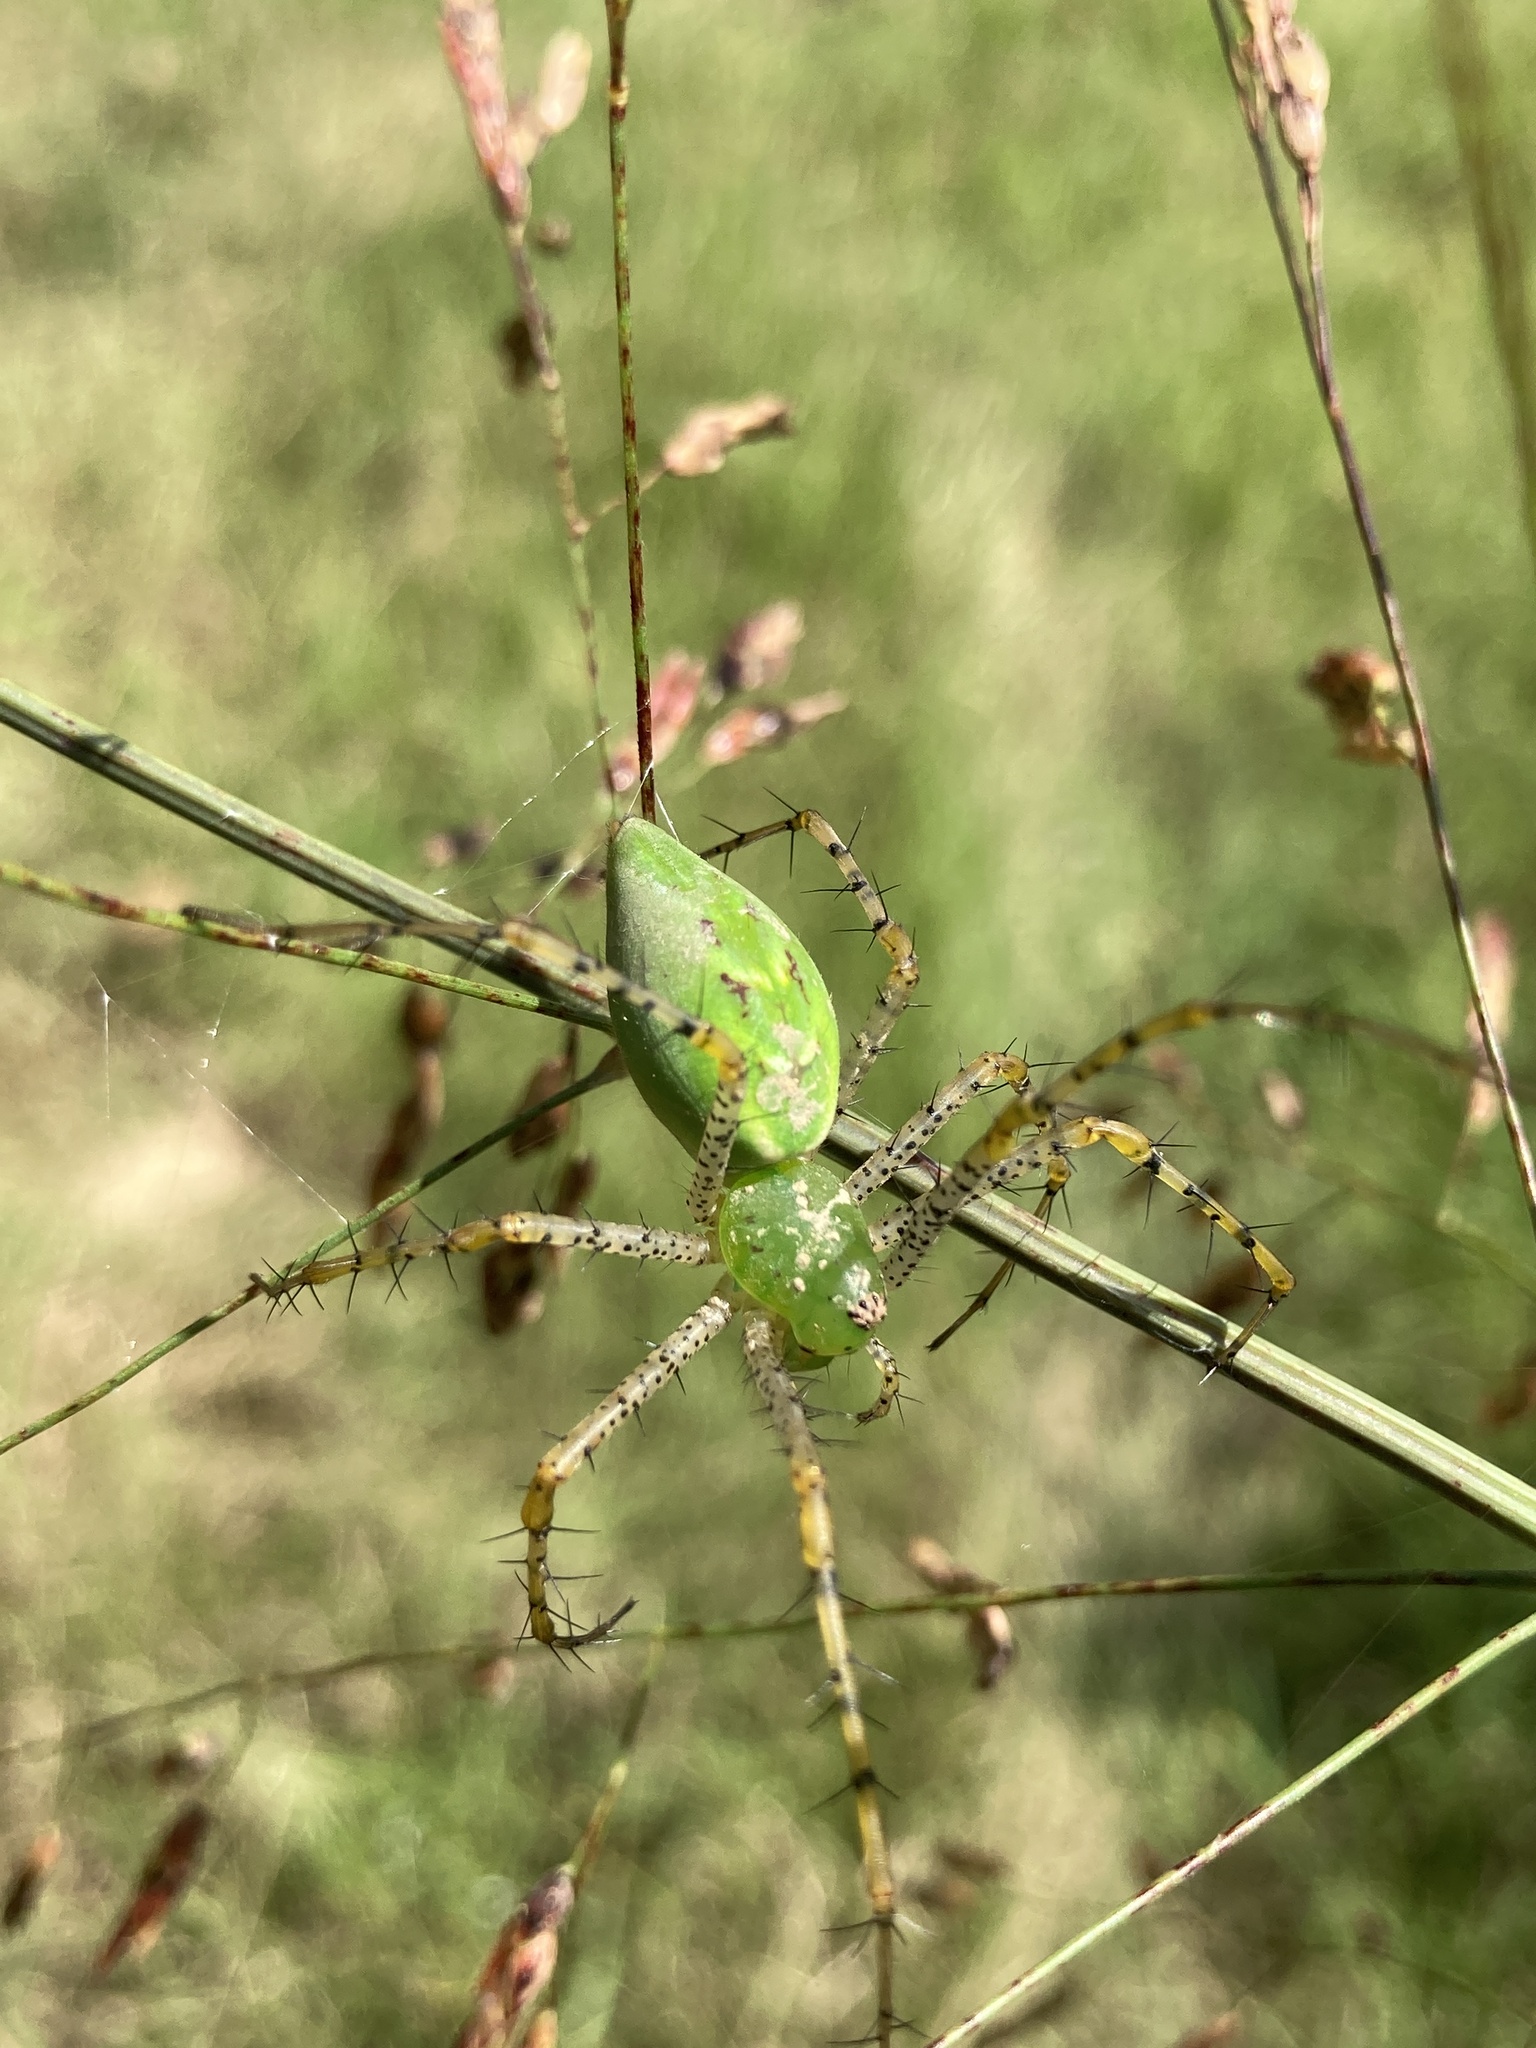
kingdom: Animalia
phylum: Arthropoda
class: Arachnida
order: Araneae
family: Oxyopidae
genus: Peucetia
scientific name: Peucetia viridans
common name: Lynx spiders
